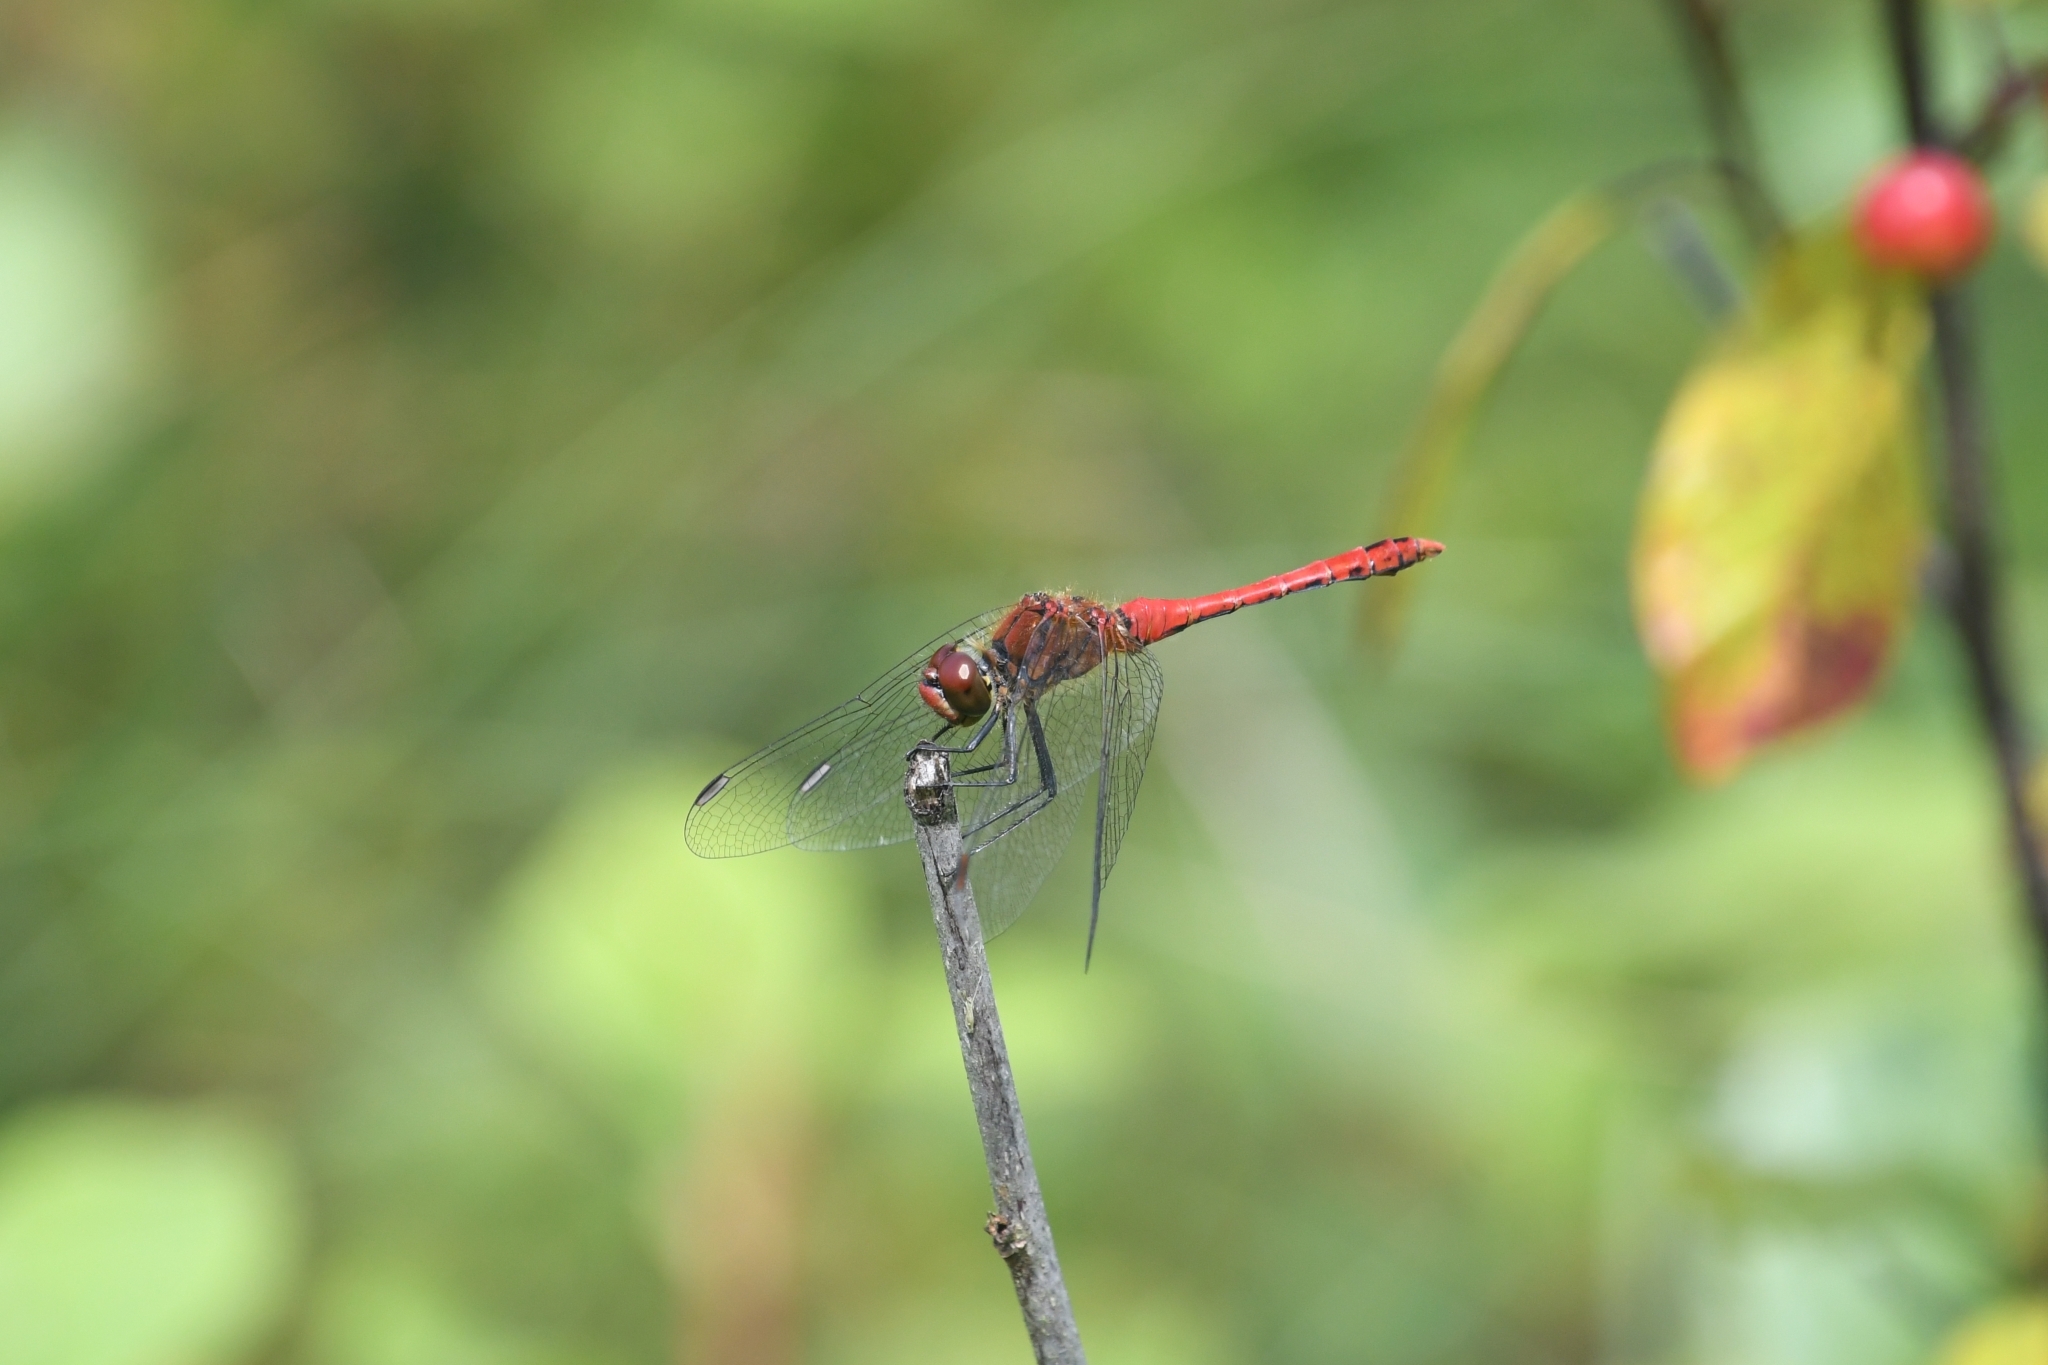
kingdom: Animalia
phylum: Arthropoda
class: Insecta
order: Odonata
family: Libellulidae
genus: Sympetrum
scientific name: Sympetrum sanguineum
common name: Ruddy darter
